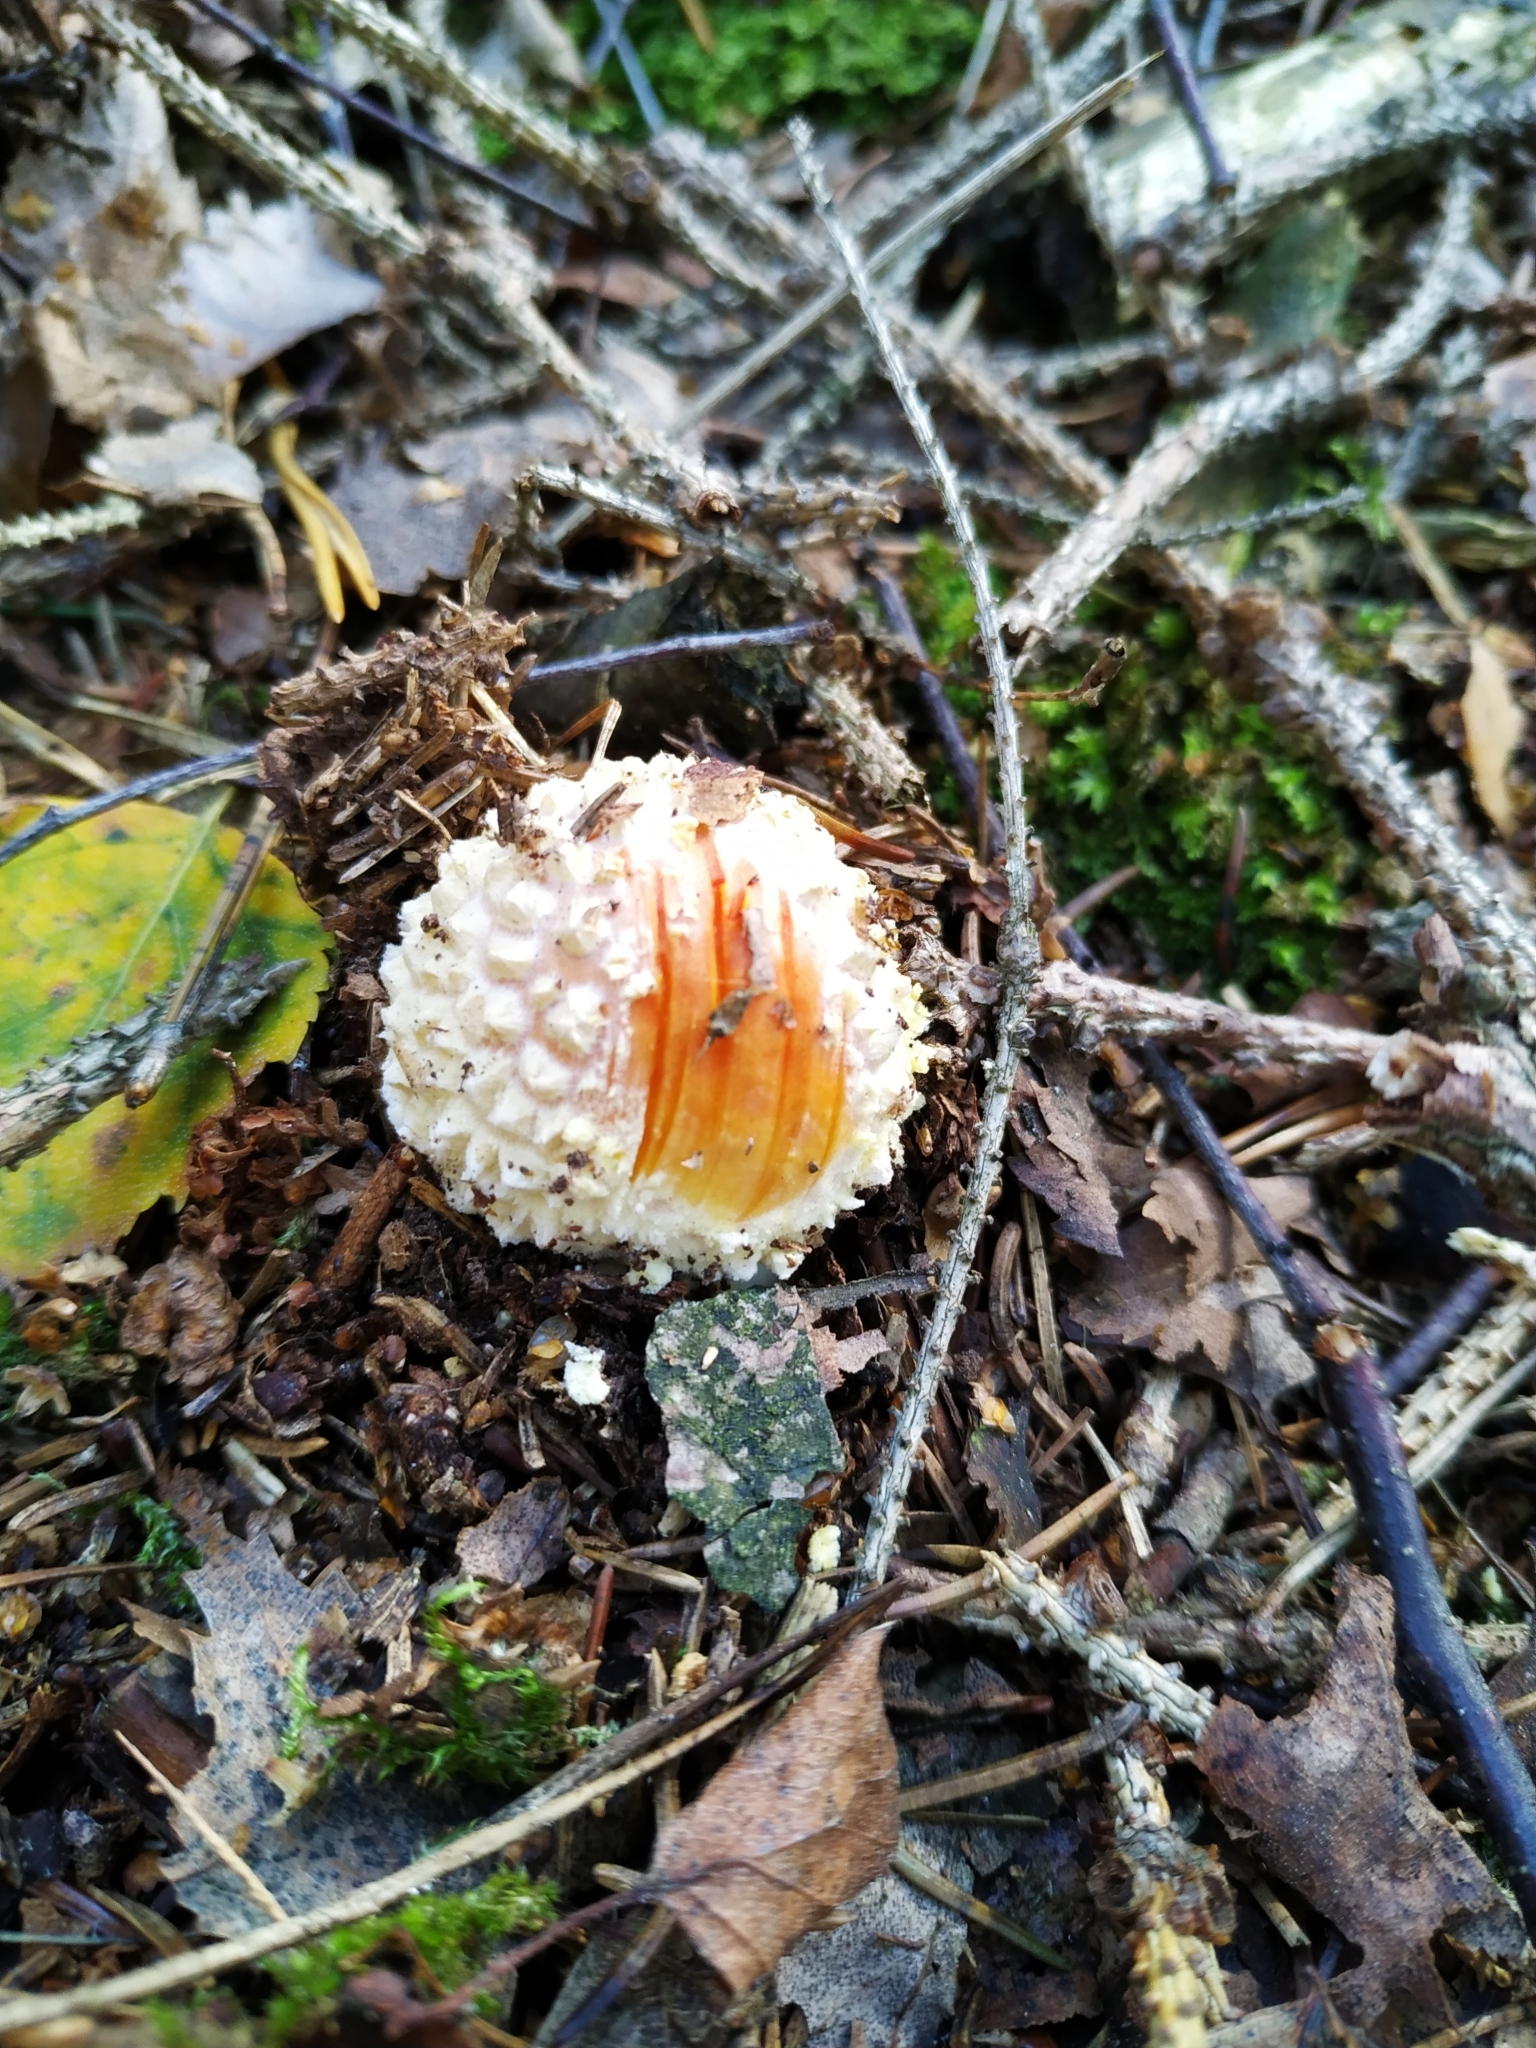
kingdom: Fungi
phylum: Basidiomycota
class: Agaricomycetes
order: Agaricales
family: Amanitaceae
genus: Amanita
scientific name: Amanita muscaria
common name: Fly agaric
